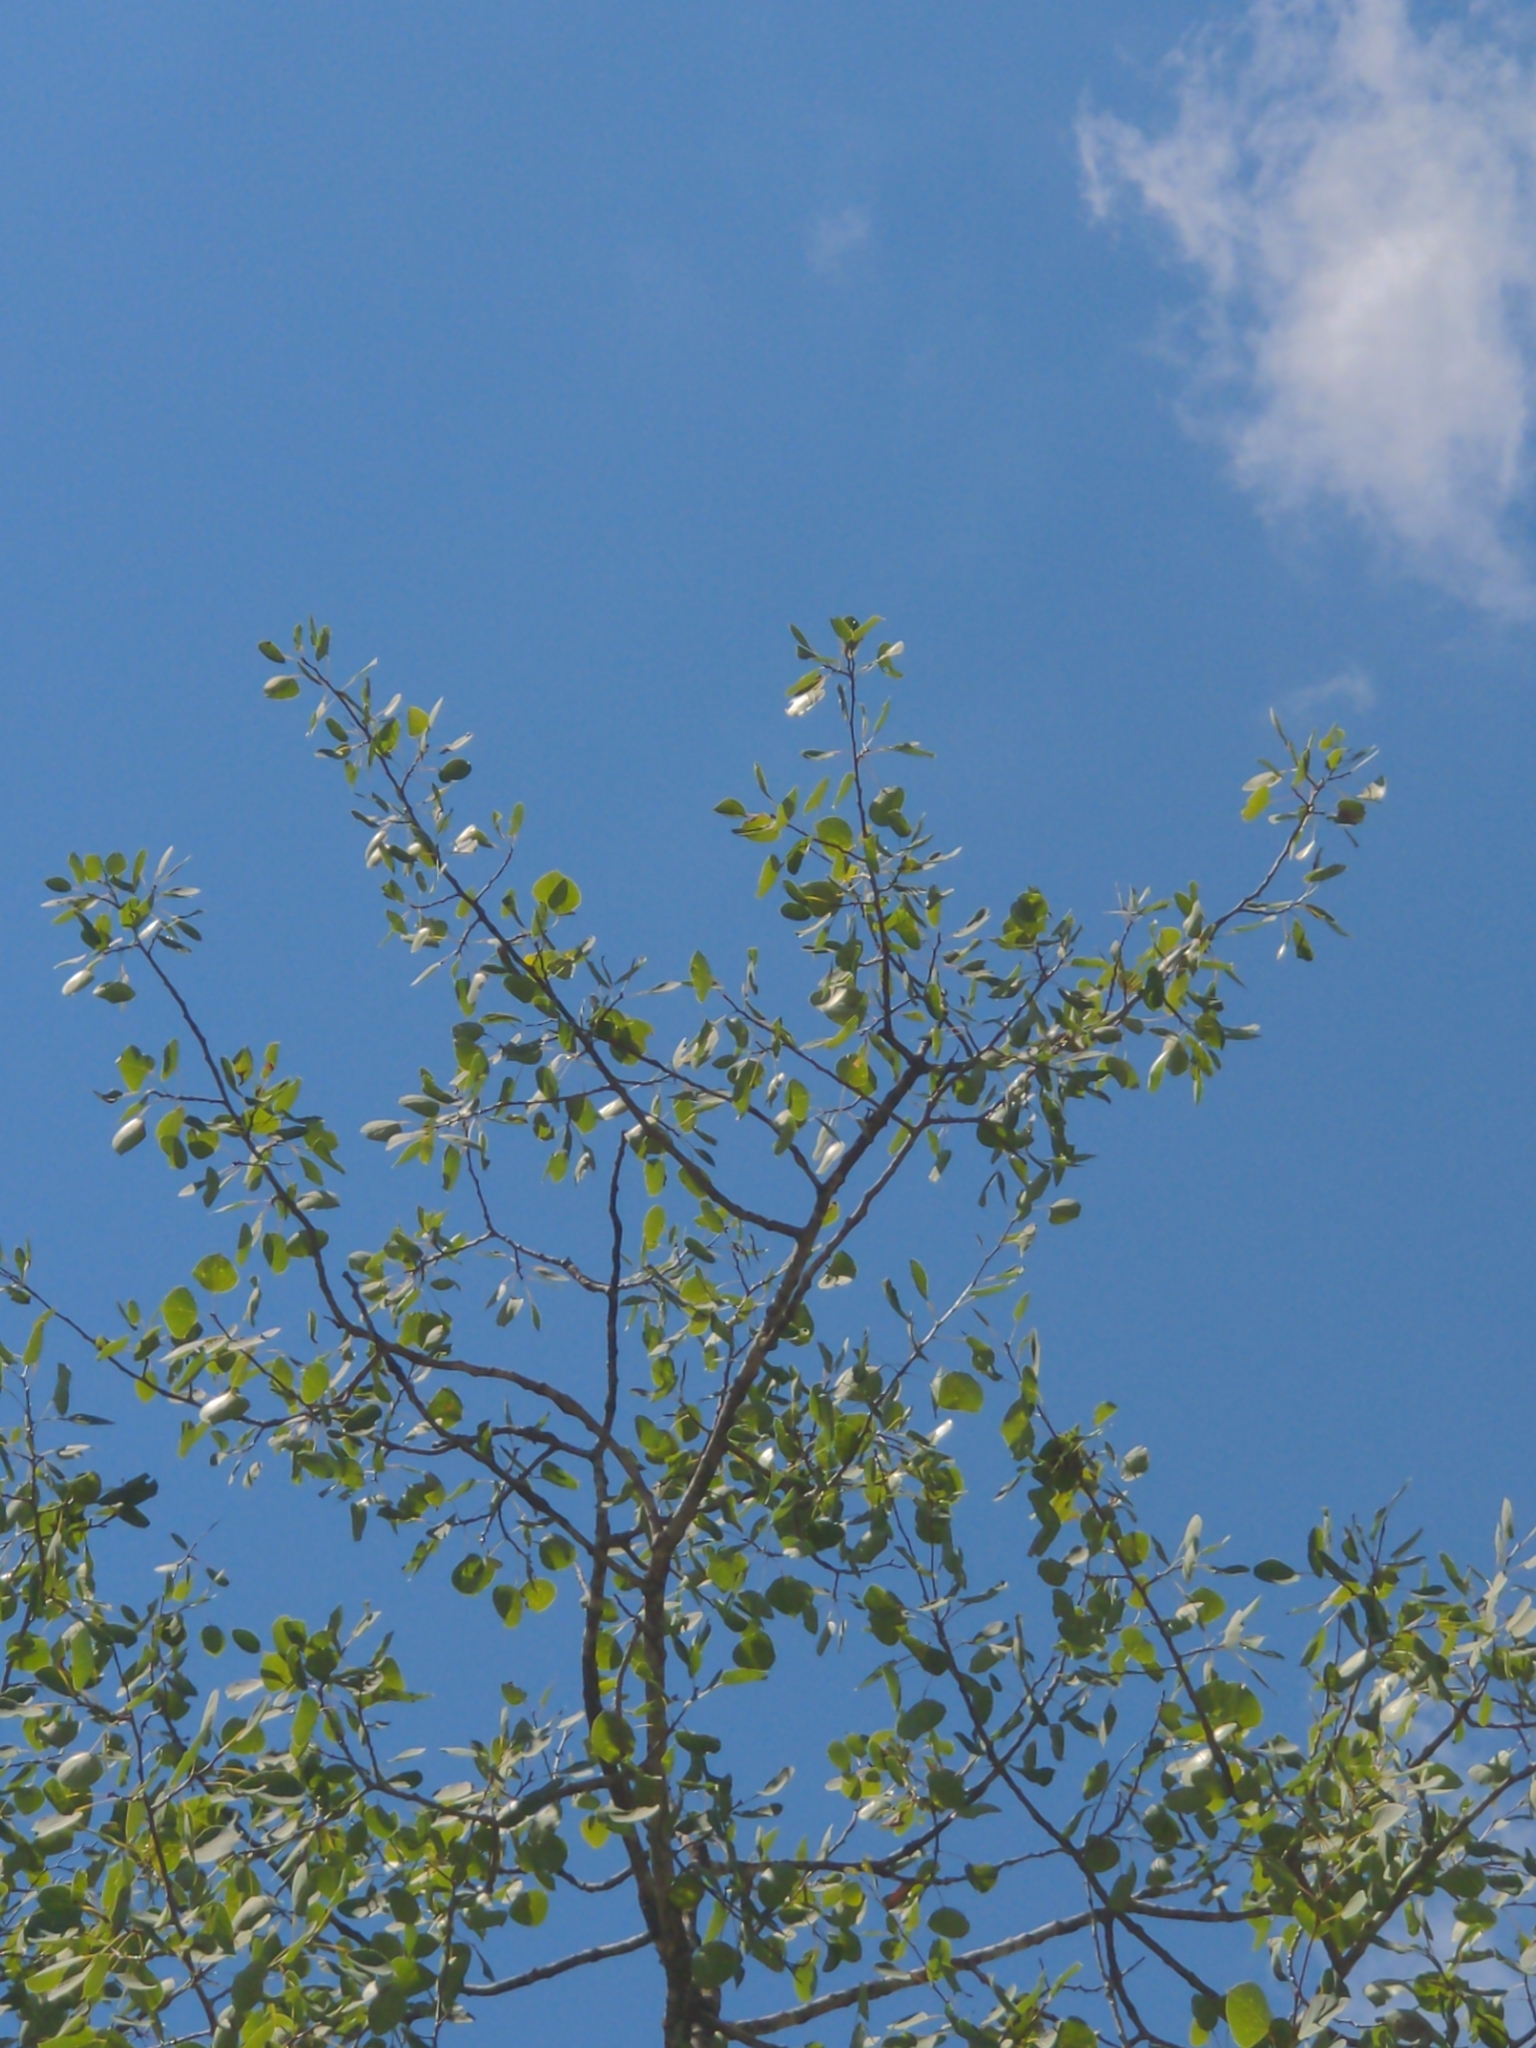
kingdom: Plantae
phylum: Tracheophyta
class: Magnoliopsida
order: Malpighiales
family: Salicaceae
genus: Populus
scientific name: Populus tremuloides
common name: Quaking aspen
